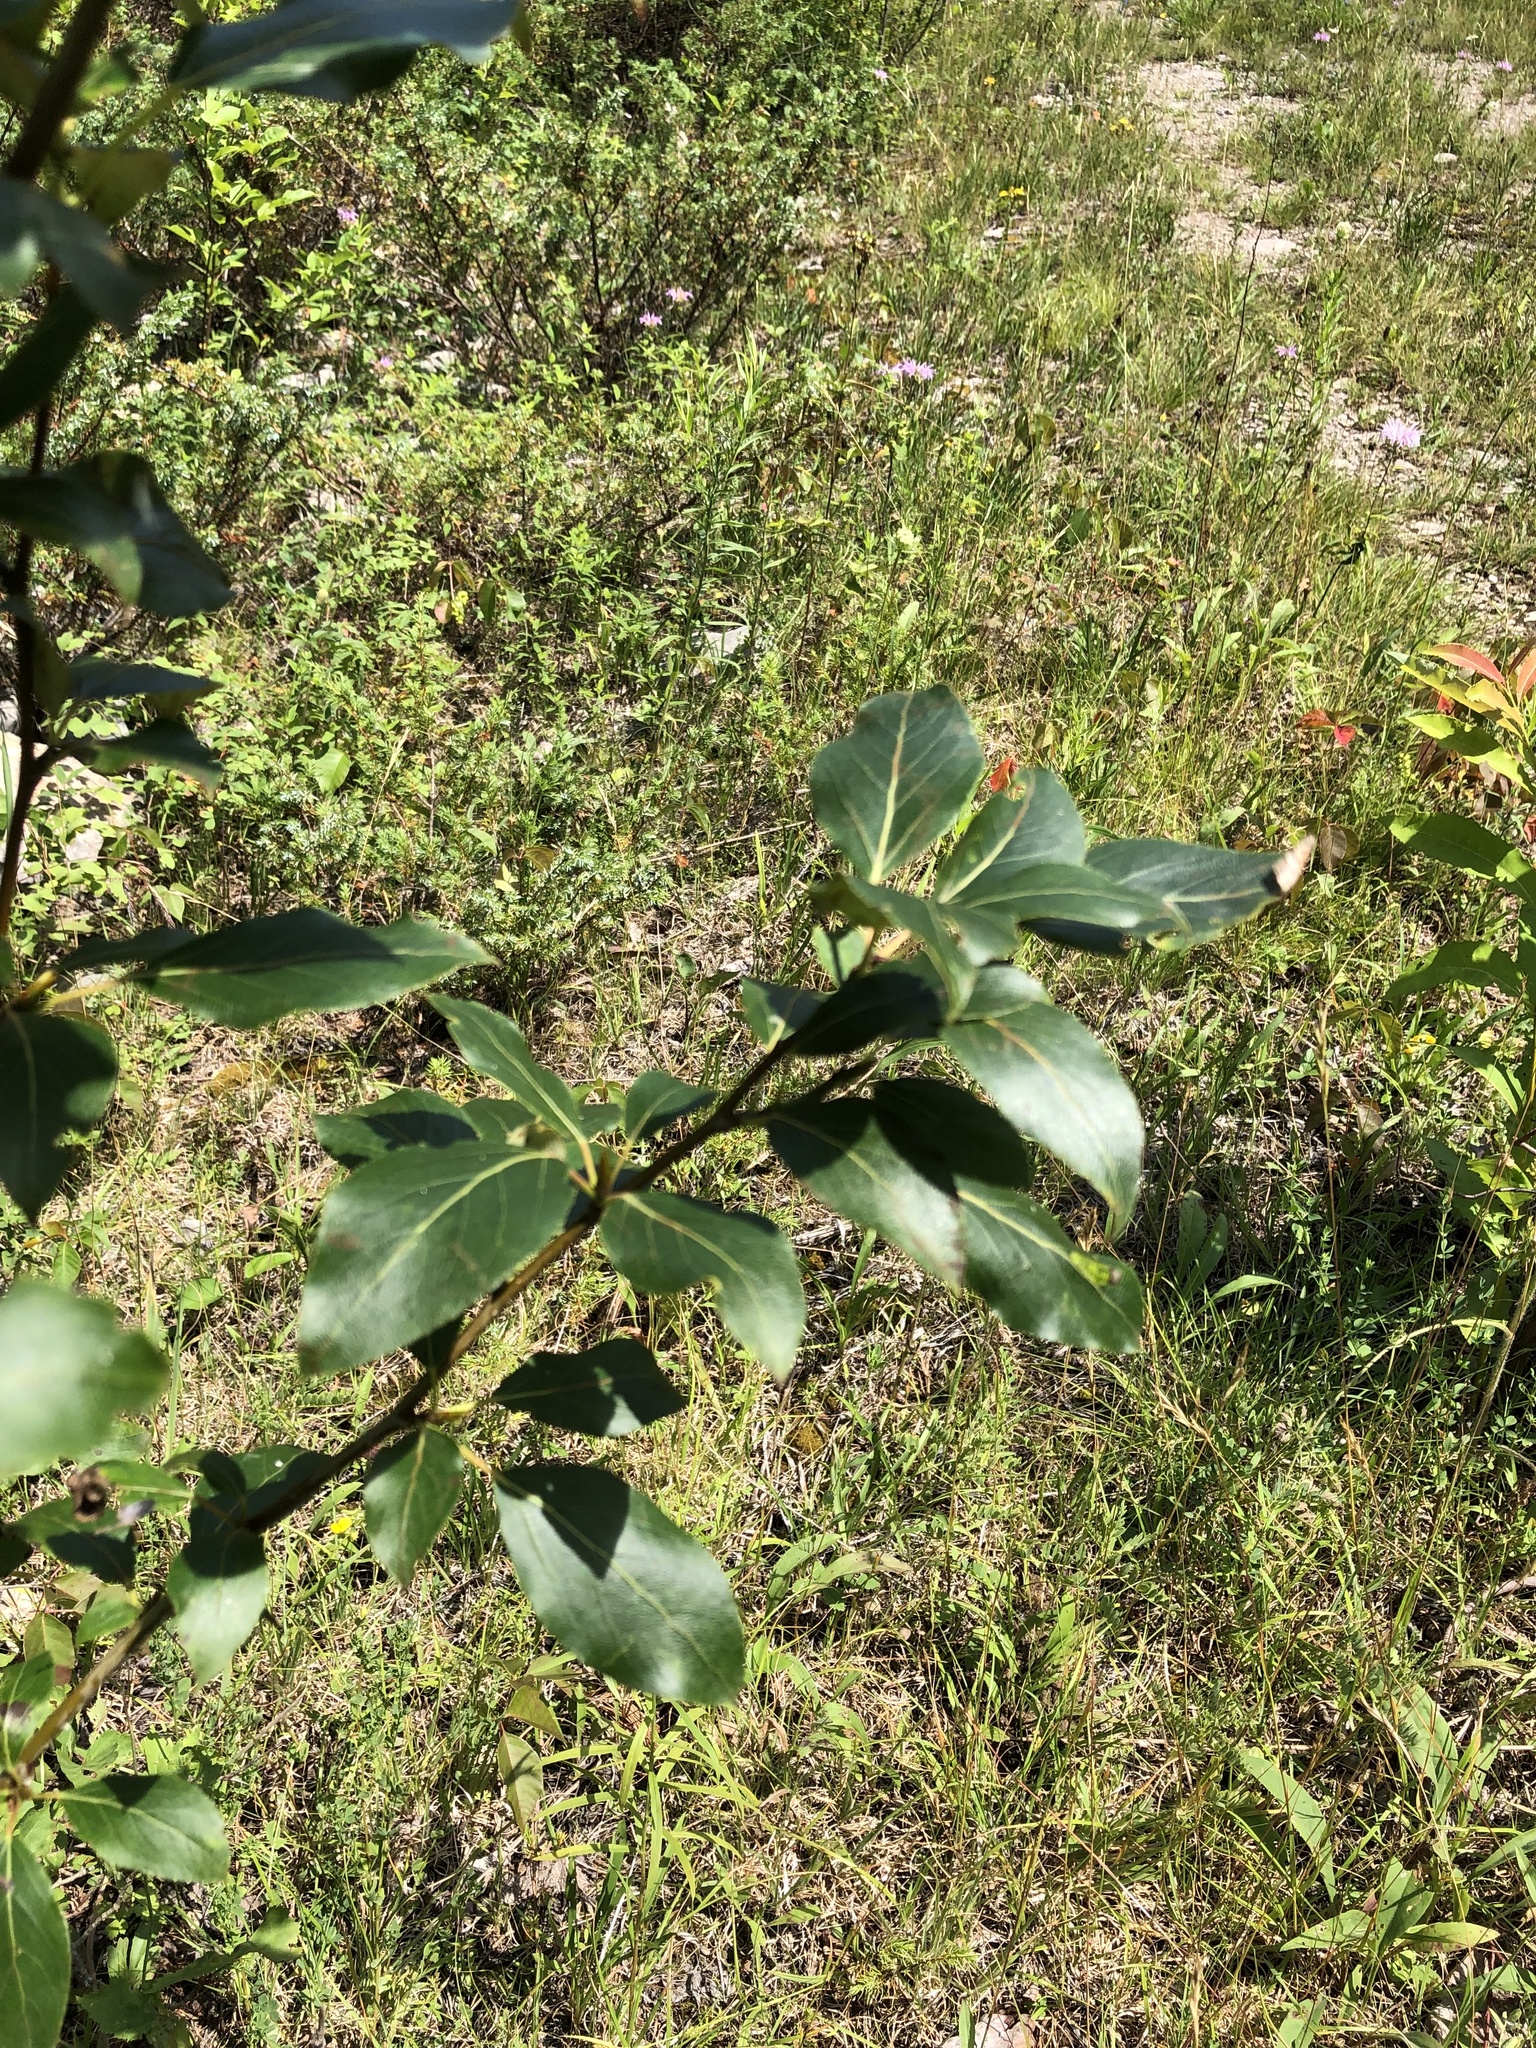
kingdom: Plantae
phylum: Tracheophyta
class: Magnoliopsida
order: Malpighiales
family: Salicaceae
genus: Populus
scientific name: Populus balsamifera
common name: Balsam poplar
